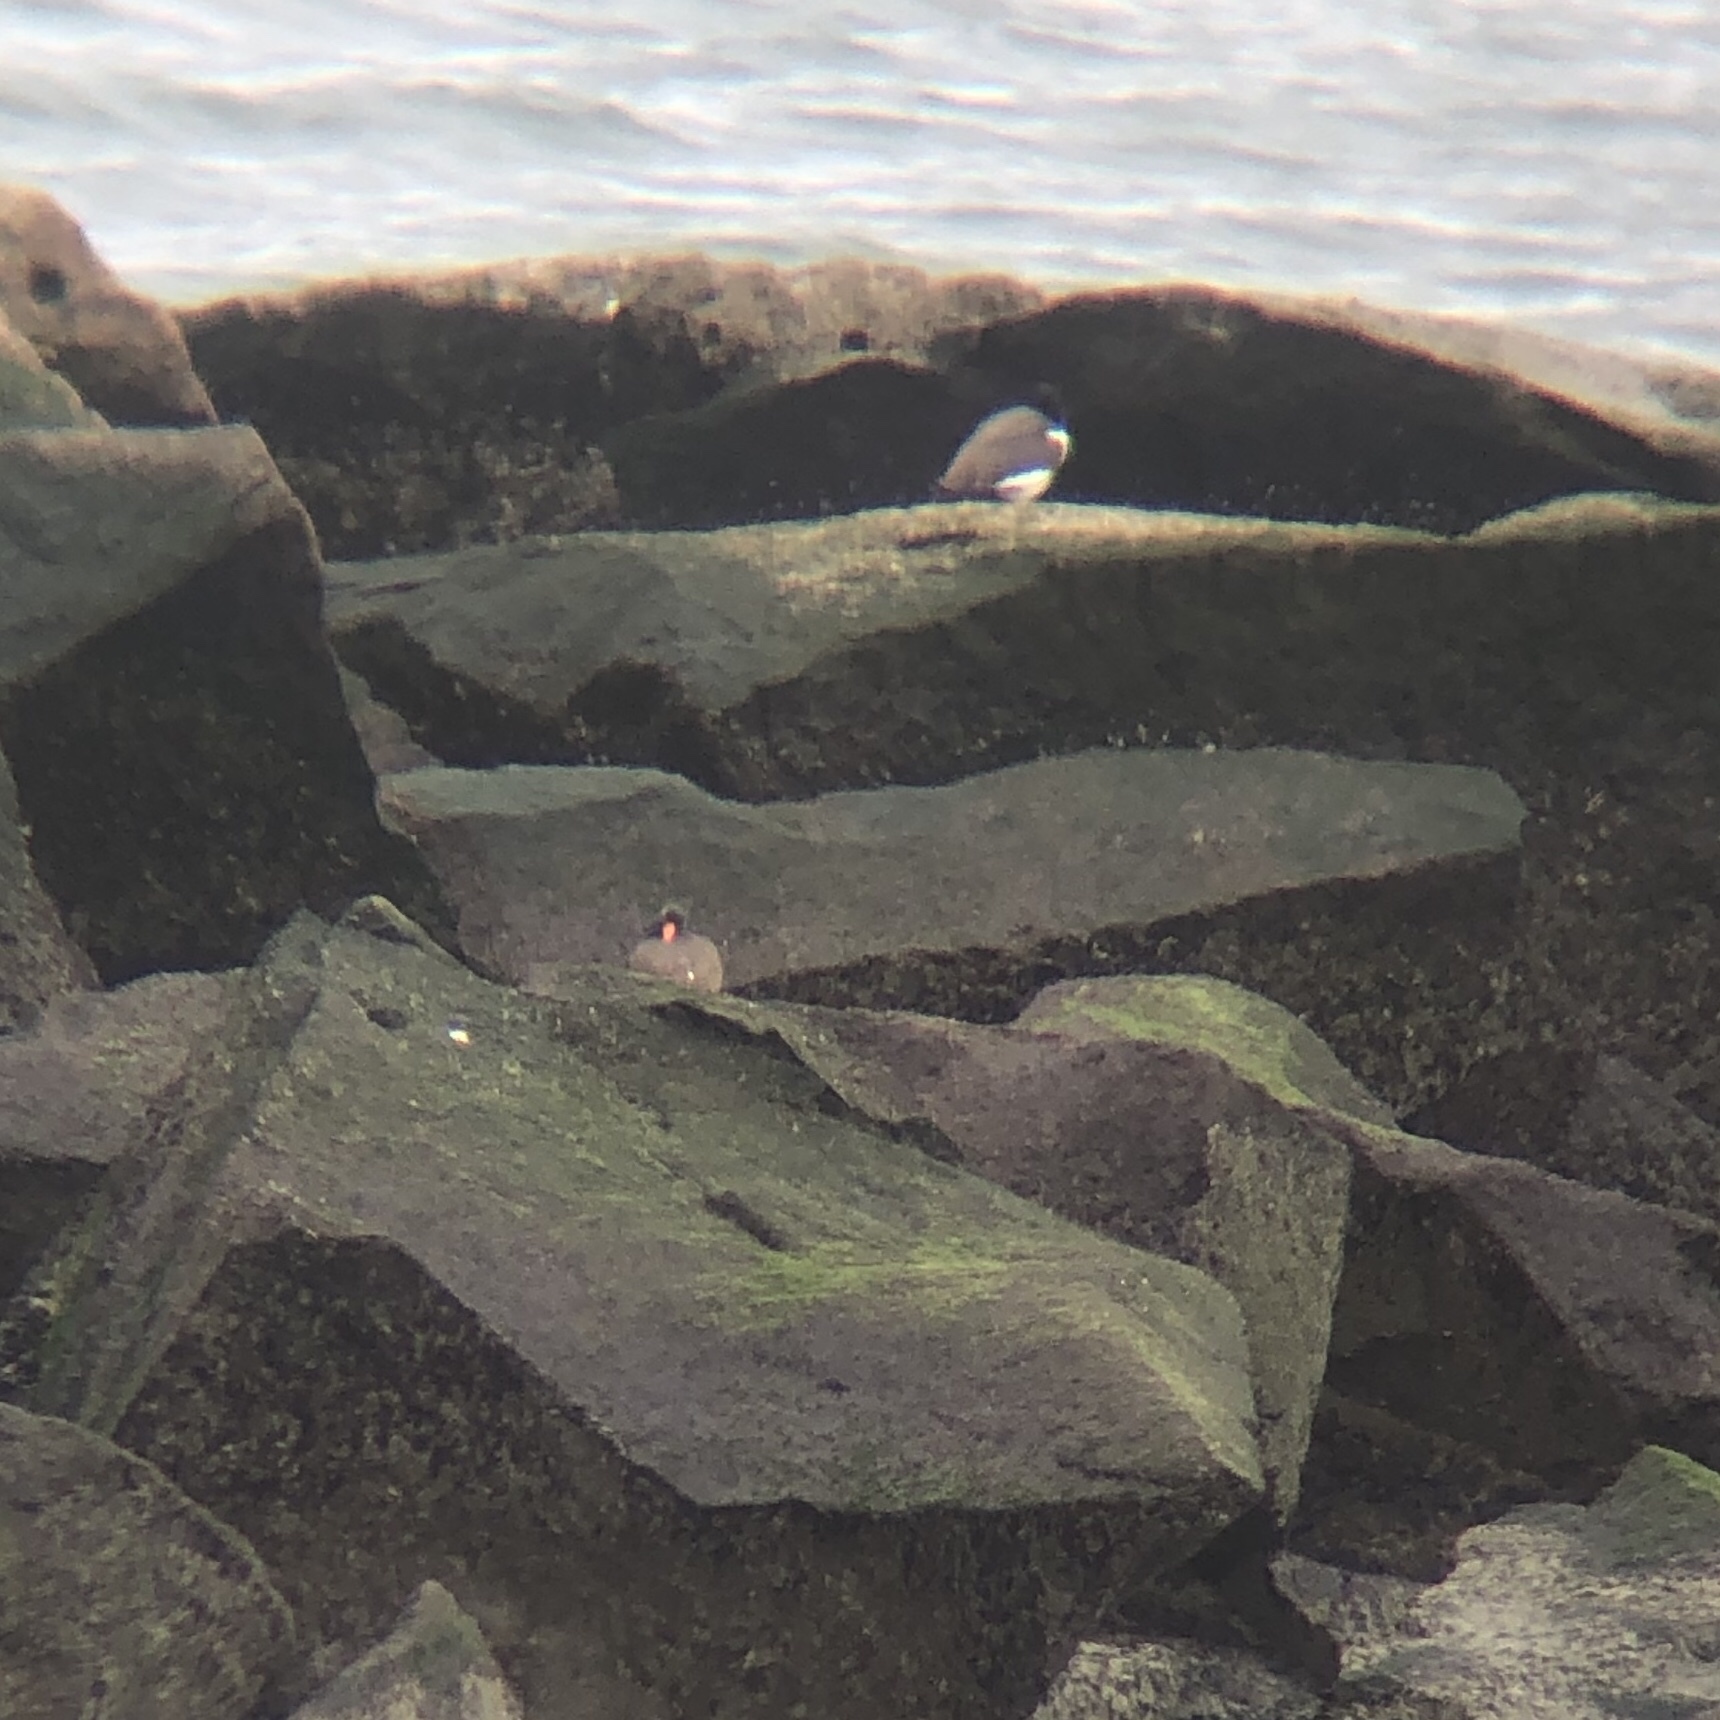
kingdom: Animalia
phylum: Chordata
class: Aves
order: Charadriiformes
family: Haematopodidae
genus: Haematopus
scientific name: Haematopus palliatus
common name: American oystercatcher
